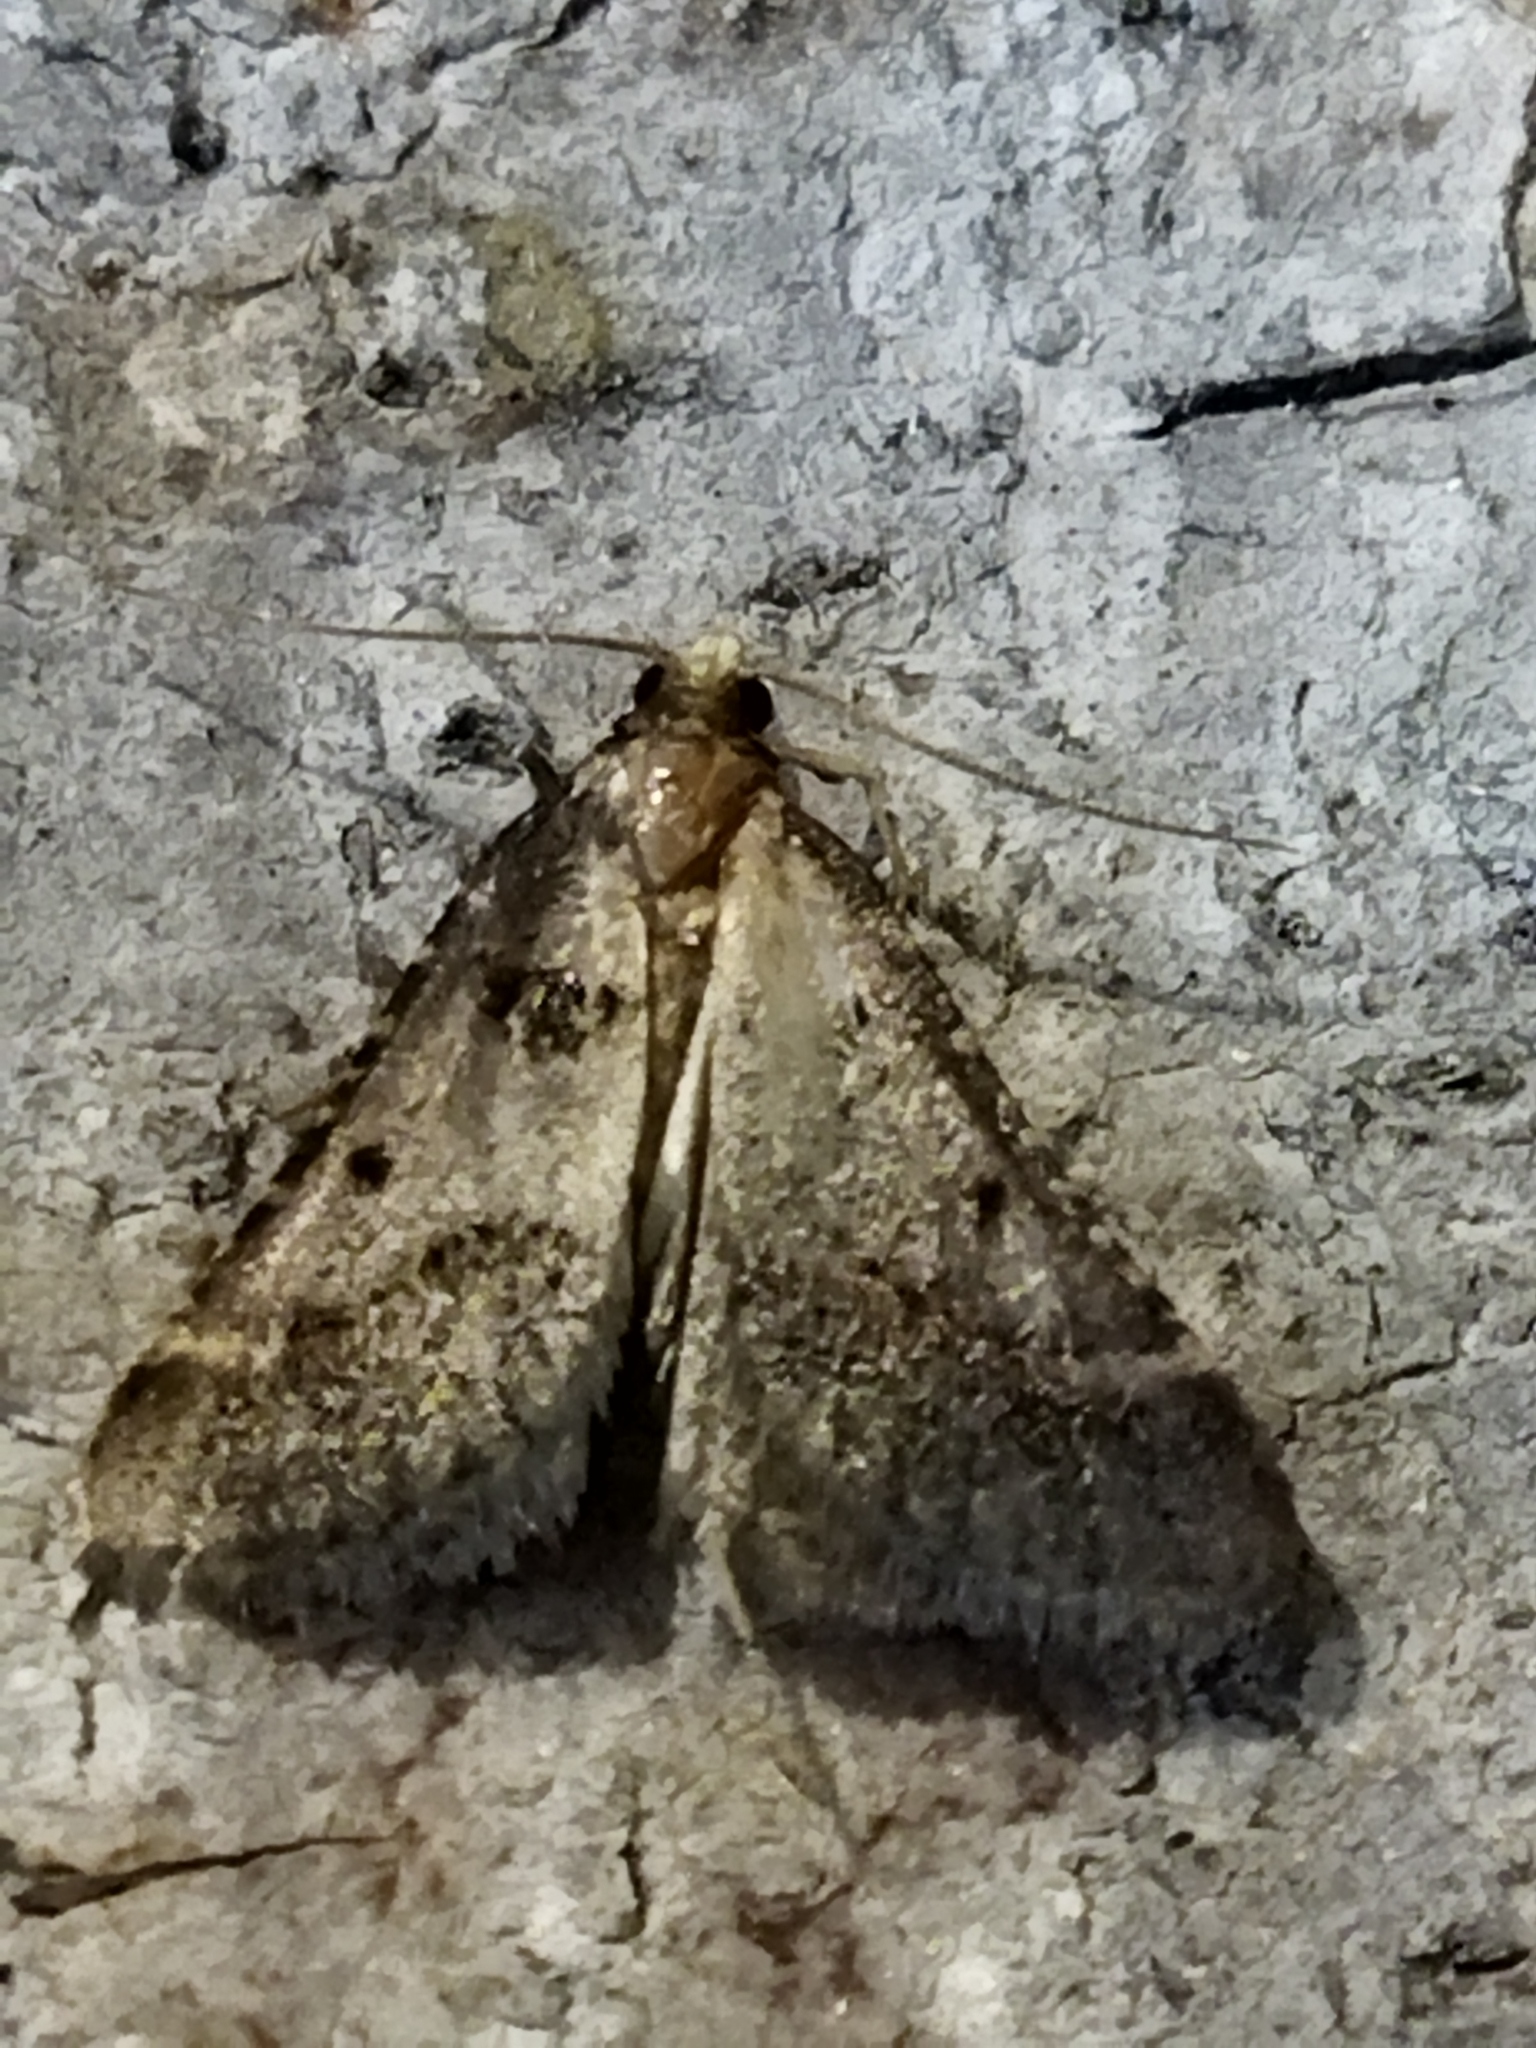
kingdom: Animalia
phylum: Arthropoda
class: Insecta
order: Lepidoptera
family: Pyralidae
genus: Stemmatophora
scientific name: Stemmatophora brunnealis
